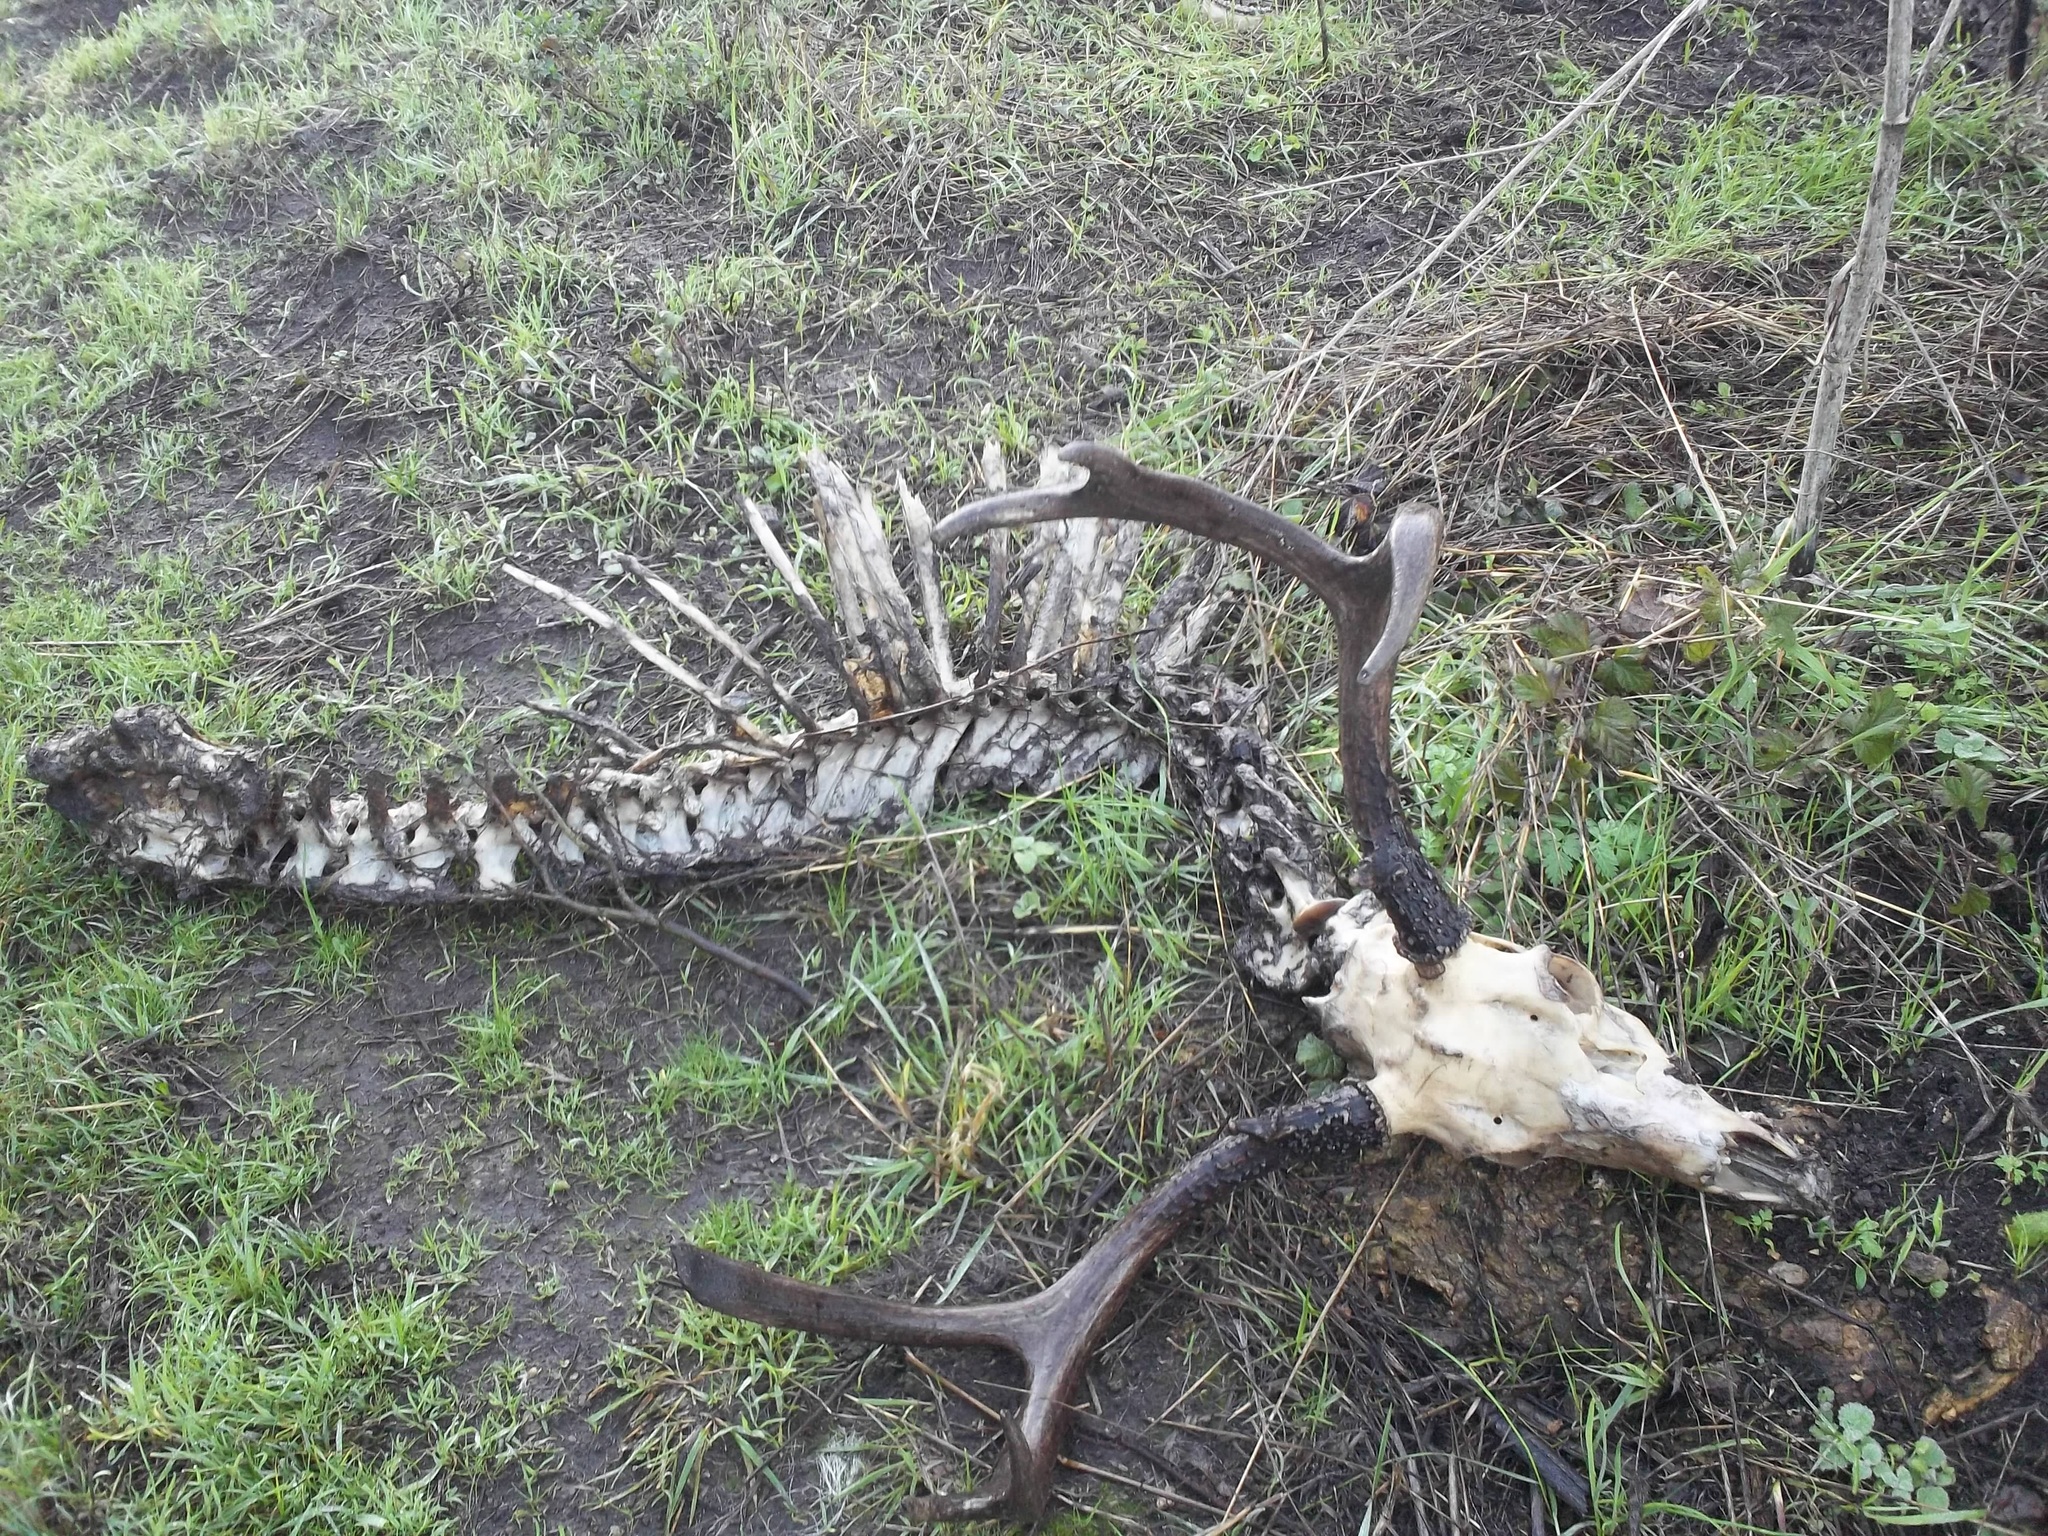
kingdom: Animalia
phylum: Chordata
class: Mammalia
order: Artiodactyla
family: Cervidae
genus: Odocoileus
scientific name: Odocoileus hemionus
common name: Mule deer
